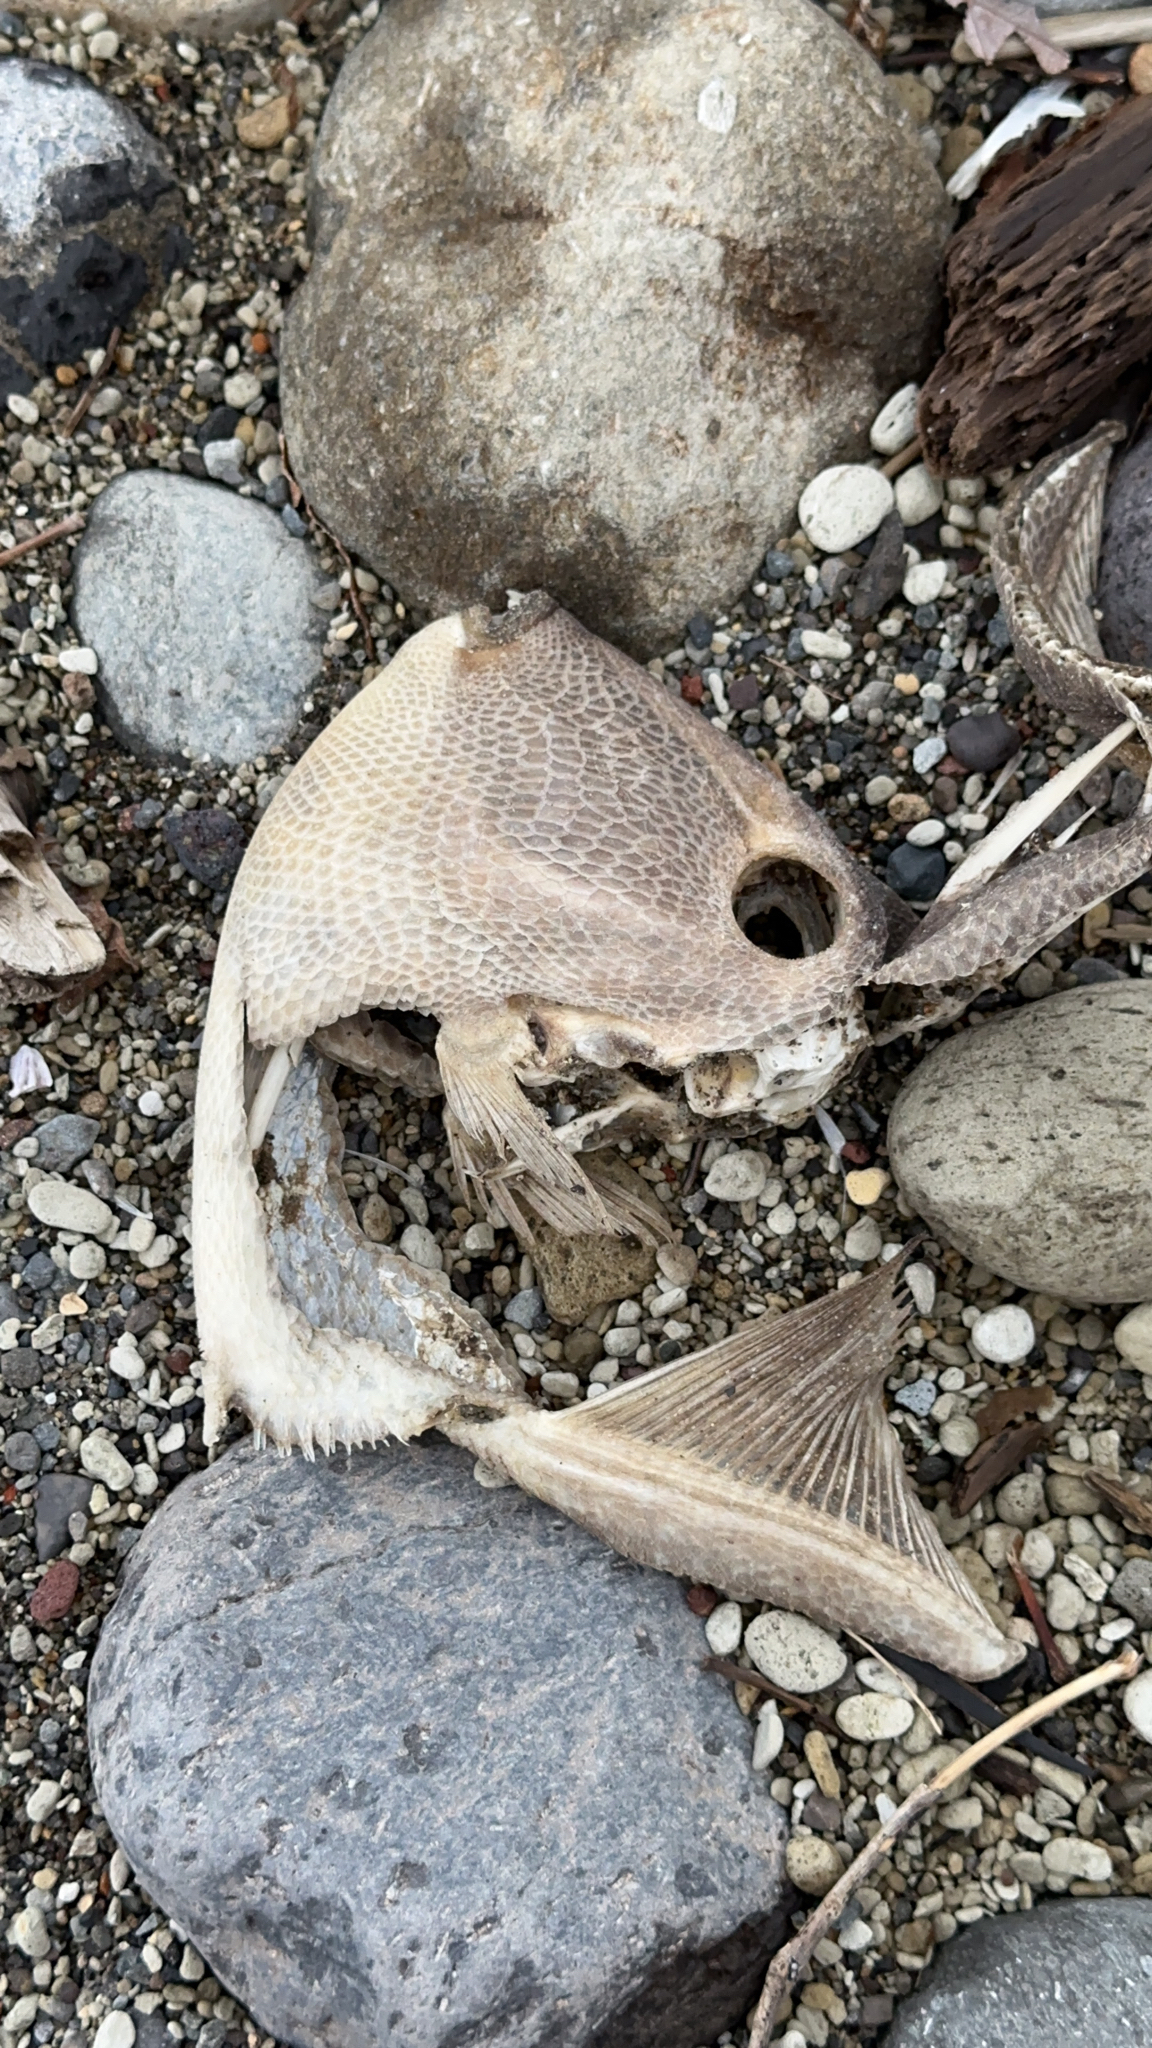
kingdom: Animalia
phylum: Chordata
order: Tetraodontiformes
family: Balistidae
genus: Balistes
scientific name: Balistes capriscus
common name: Grey triggerfish
